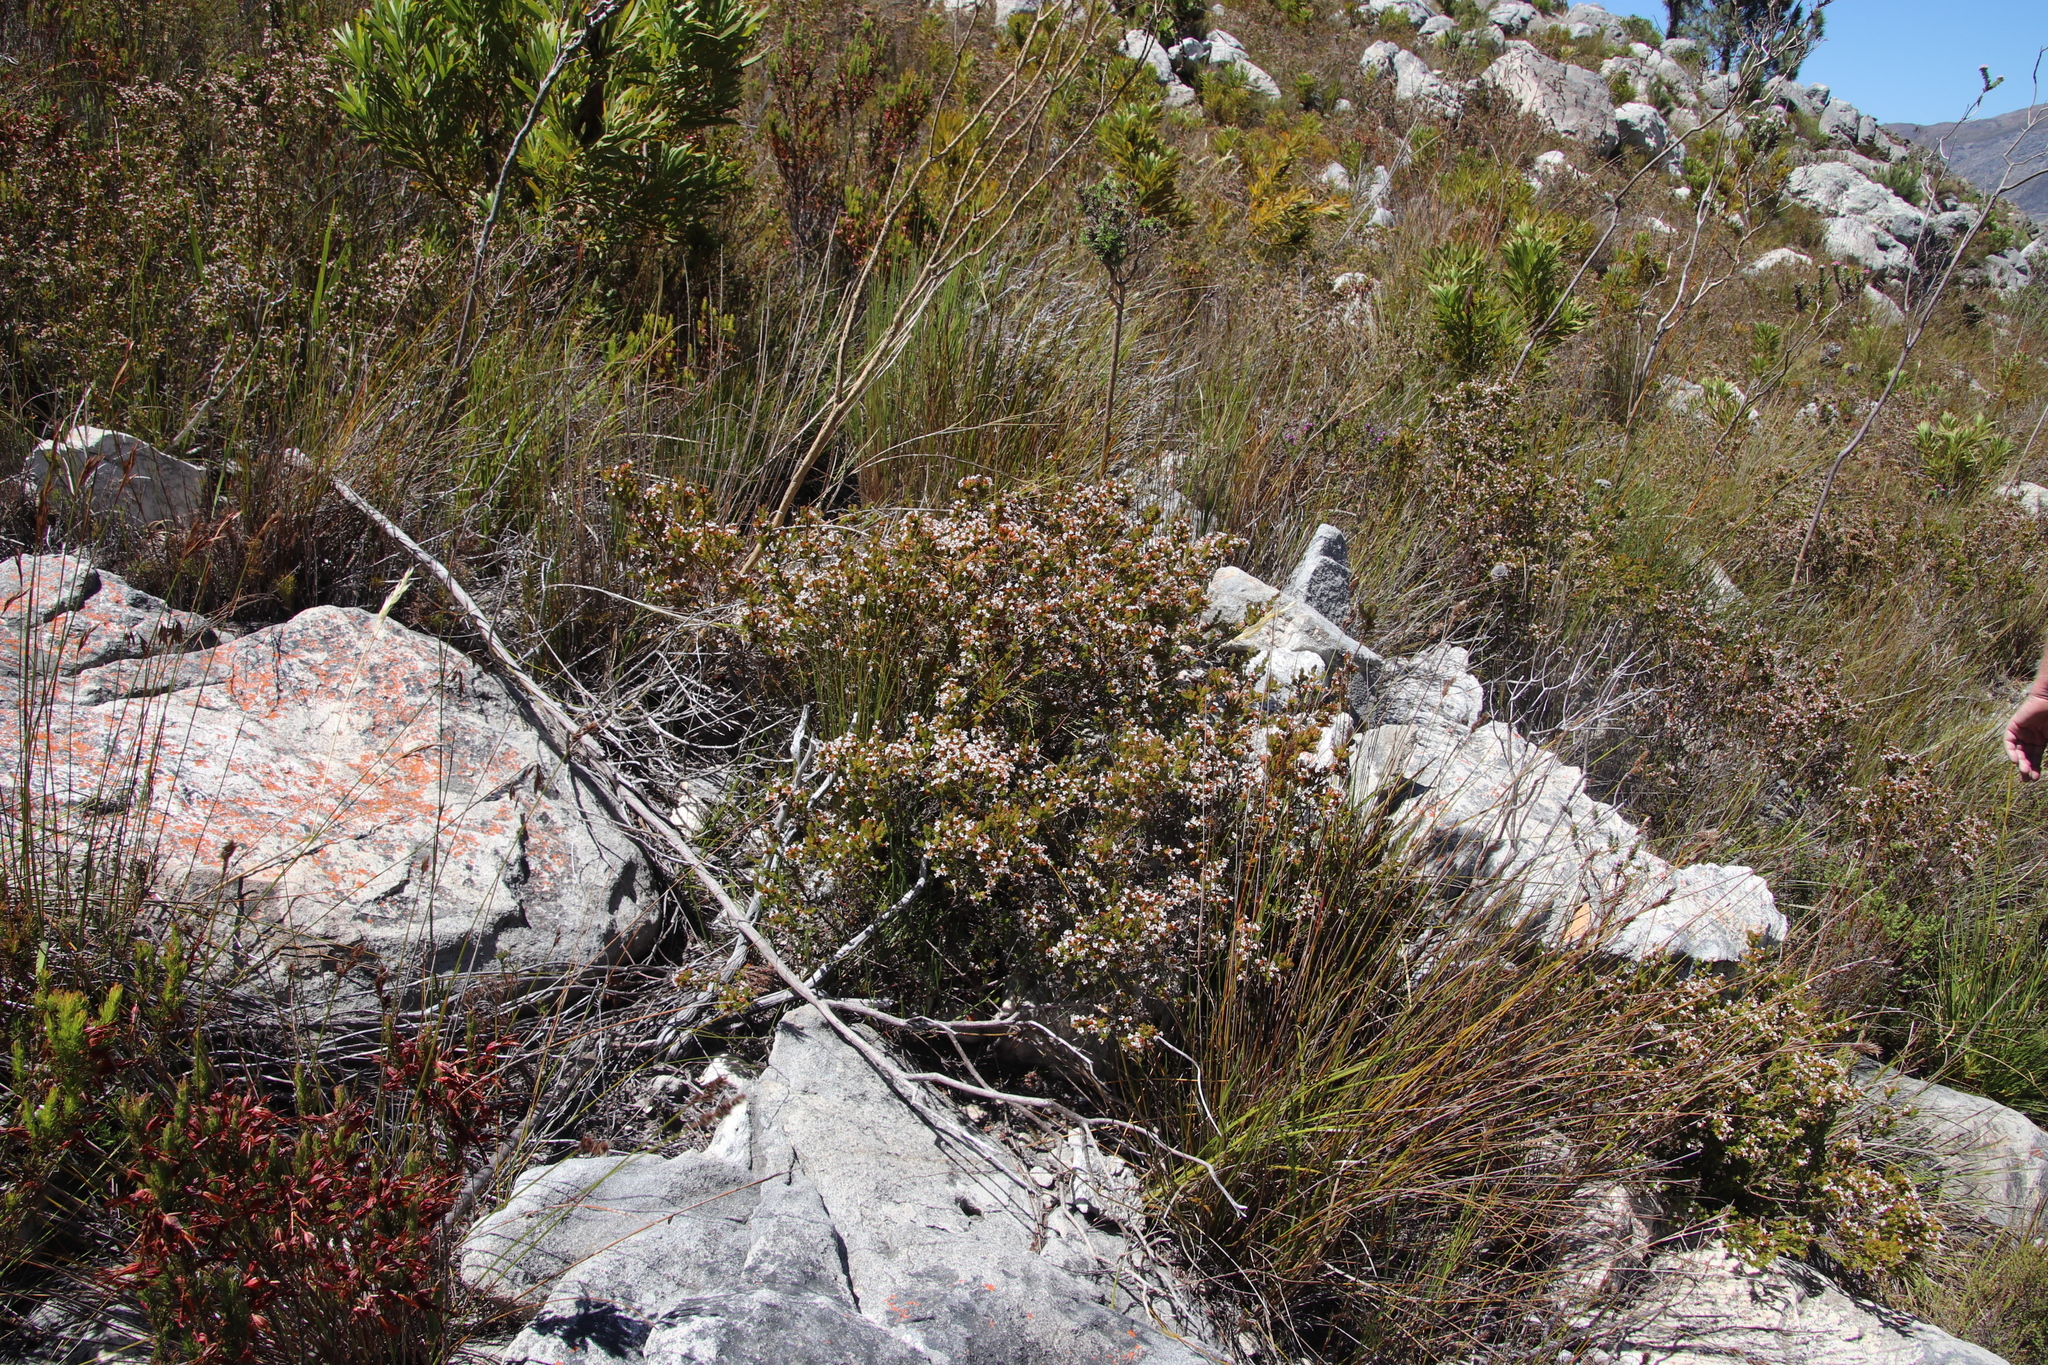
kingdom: Plantae
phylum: Tracheophyta
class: Magnoliopsida
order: Ericales
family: Ericaceae
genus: Erica
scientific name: Erica walkeria
